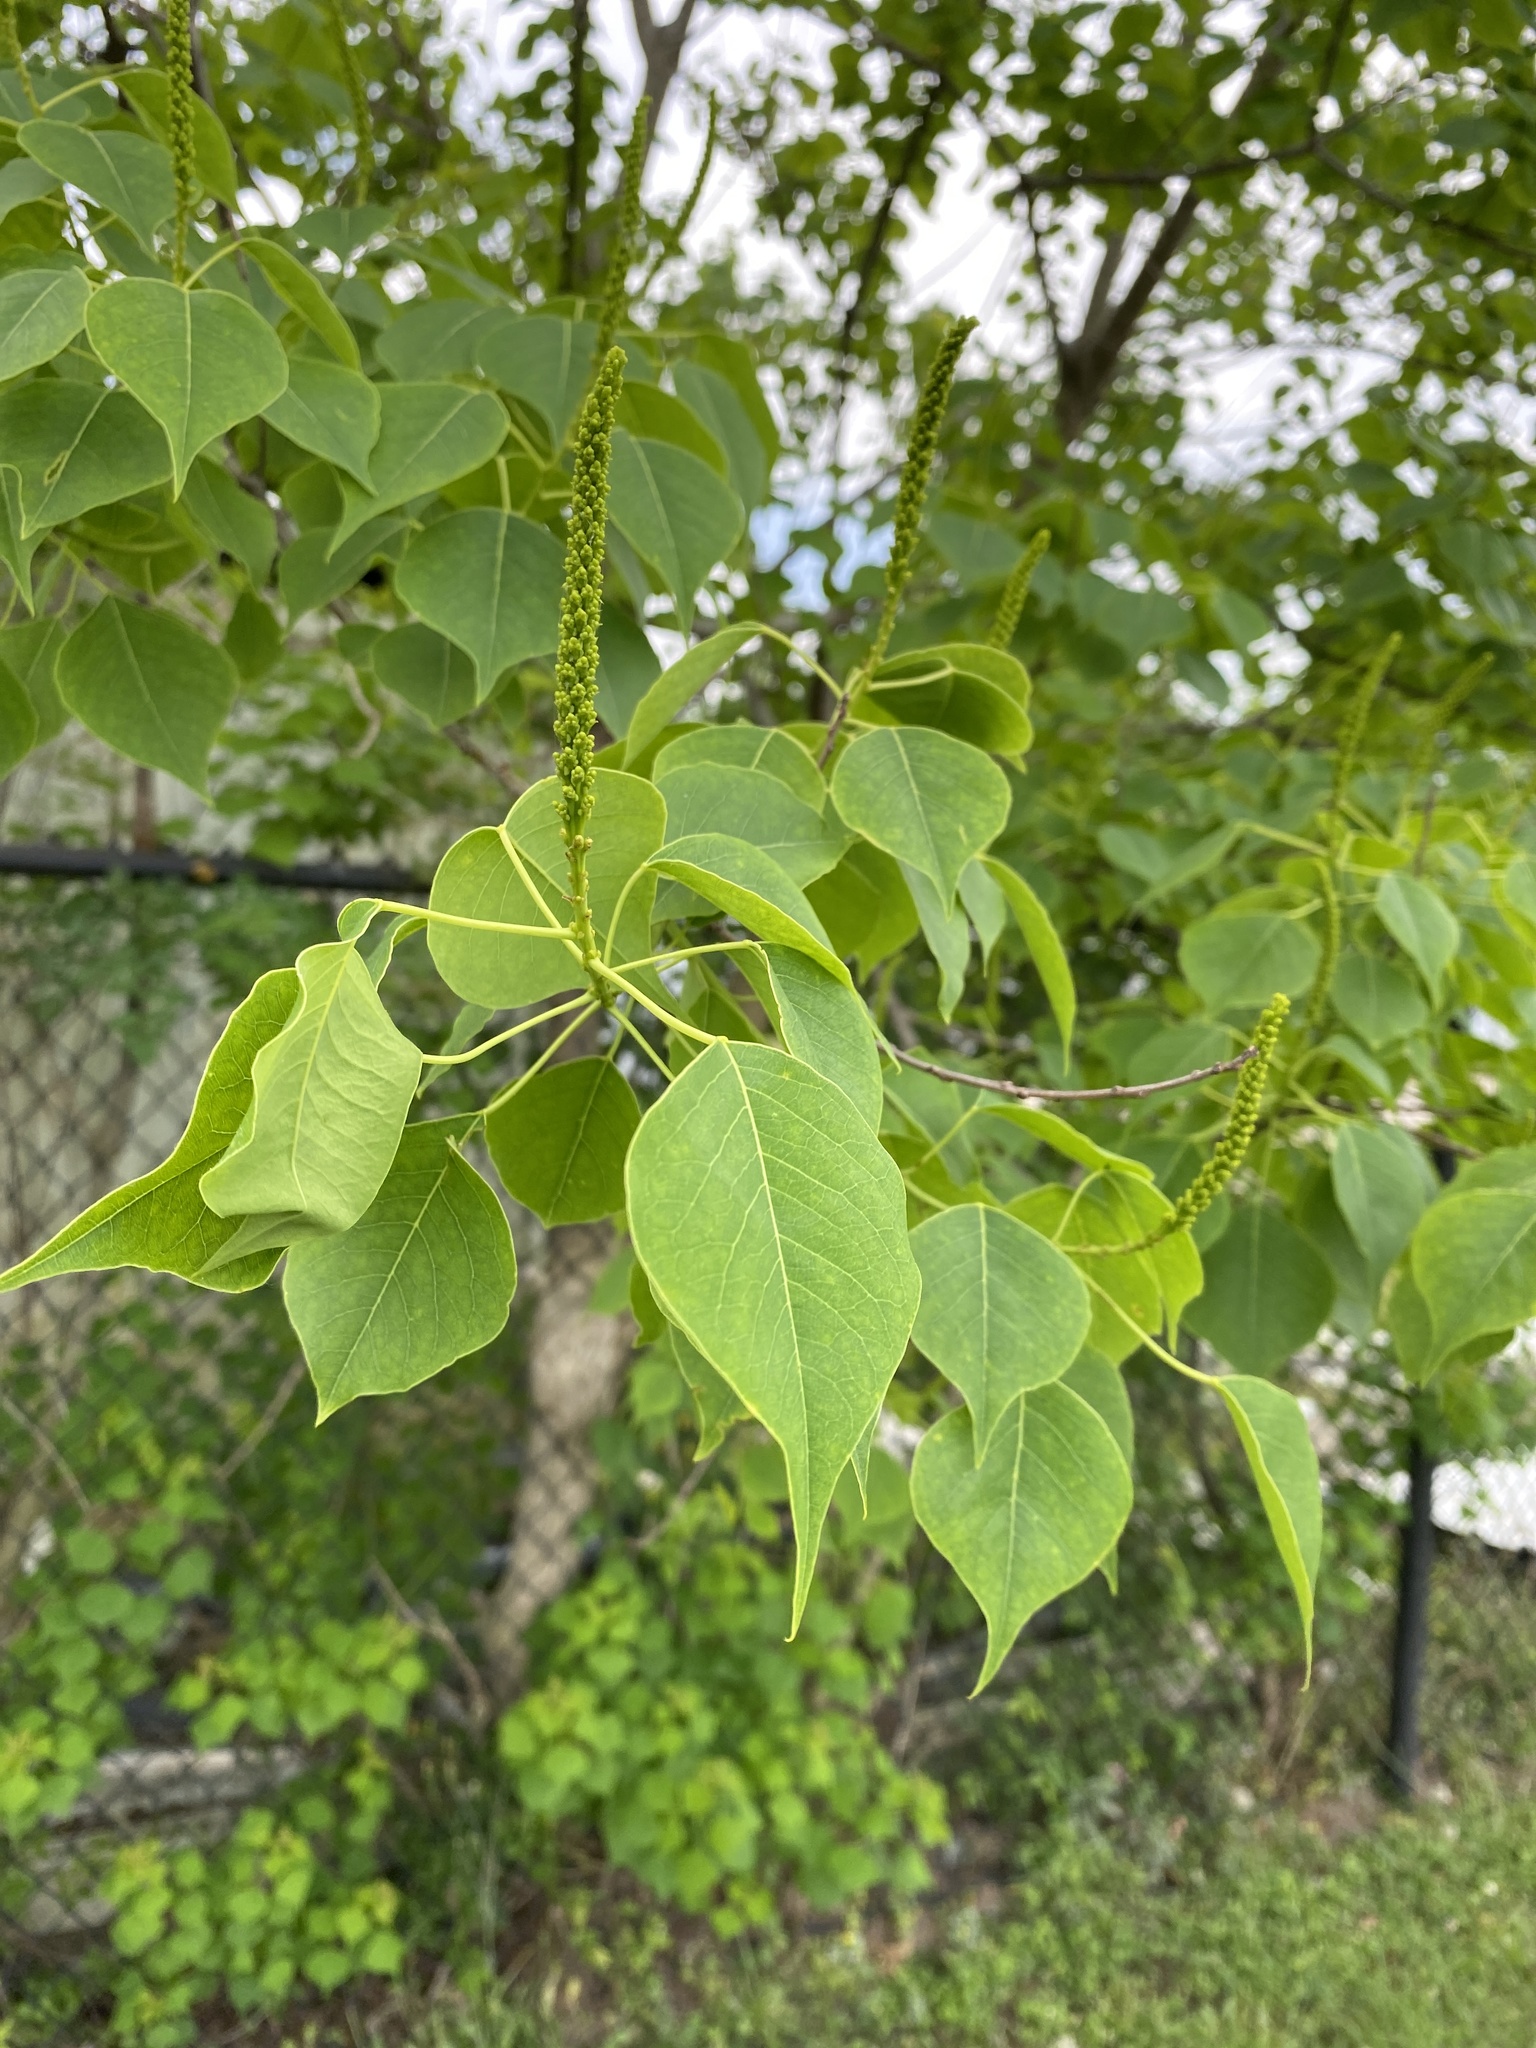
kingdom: Plantae
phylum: Tracheophyta
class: Magnoliopsida
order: Malpighiales
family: Euphorbiaceae
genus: Triadica
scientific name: Triadica sebifera
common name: Chinese tallow
